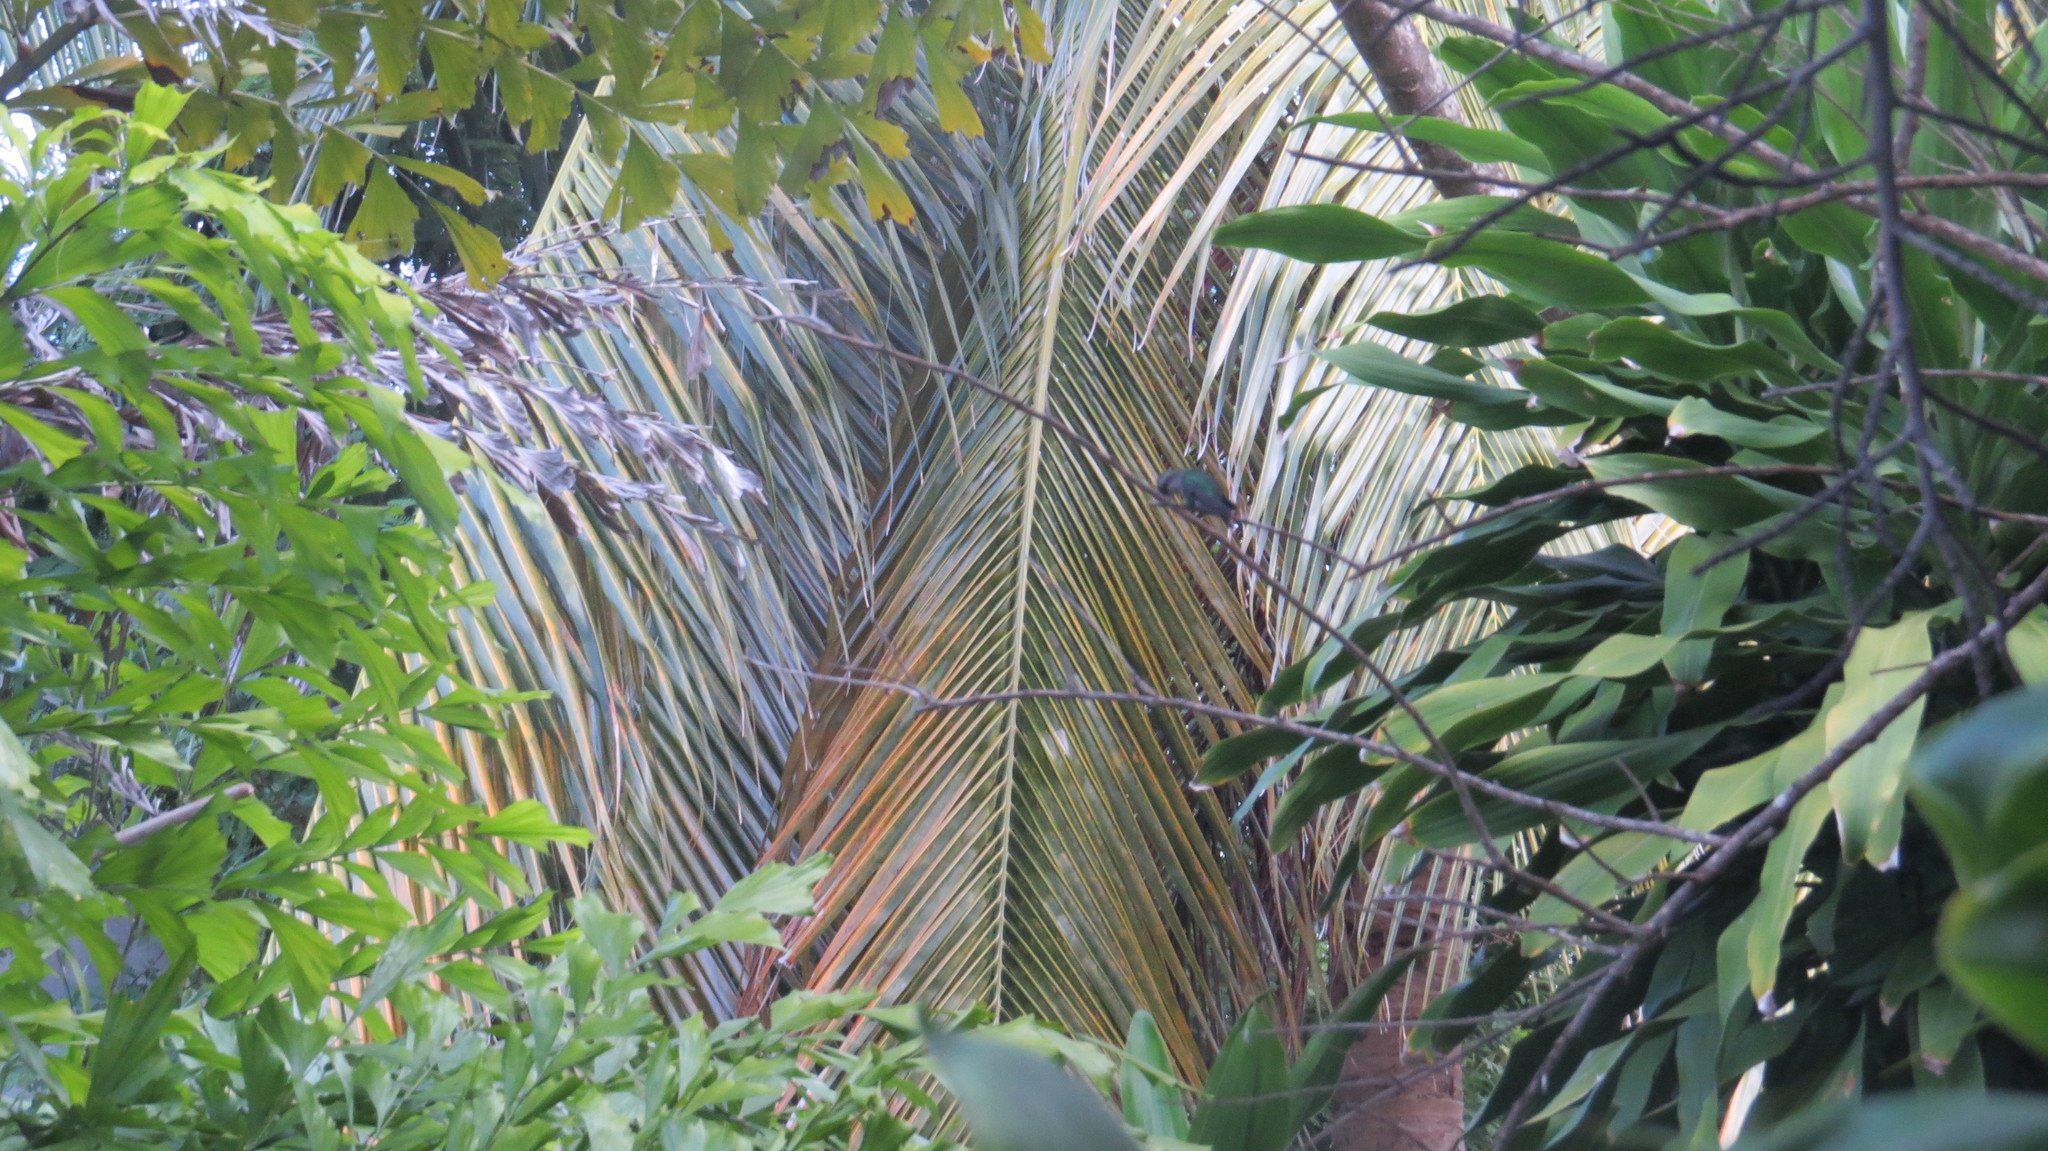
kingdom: Animalia
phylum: Chordata
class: Aves
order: Apodiformes
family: Trochilidae
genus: Cynanthus
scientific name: Cynanthus forficatus
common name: Cozumel emerald
